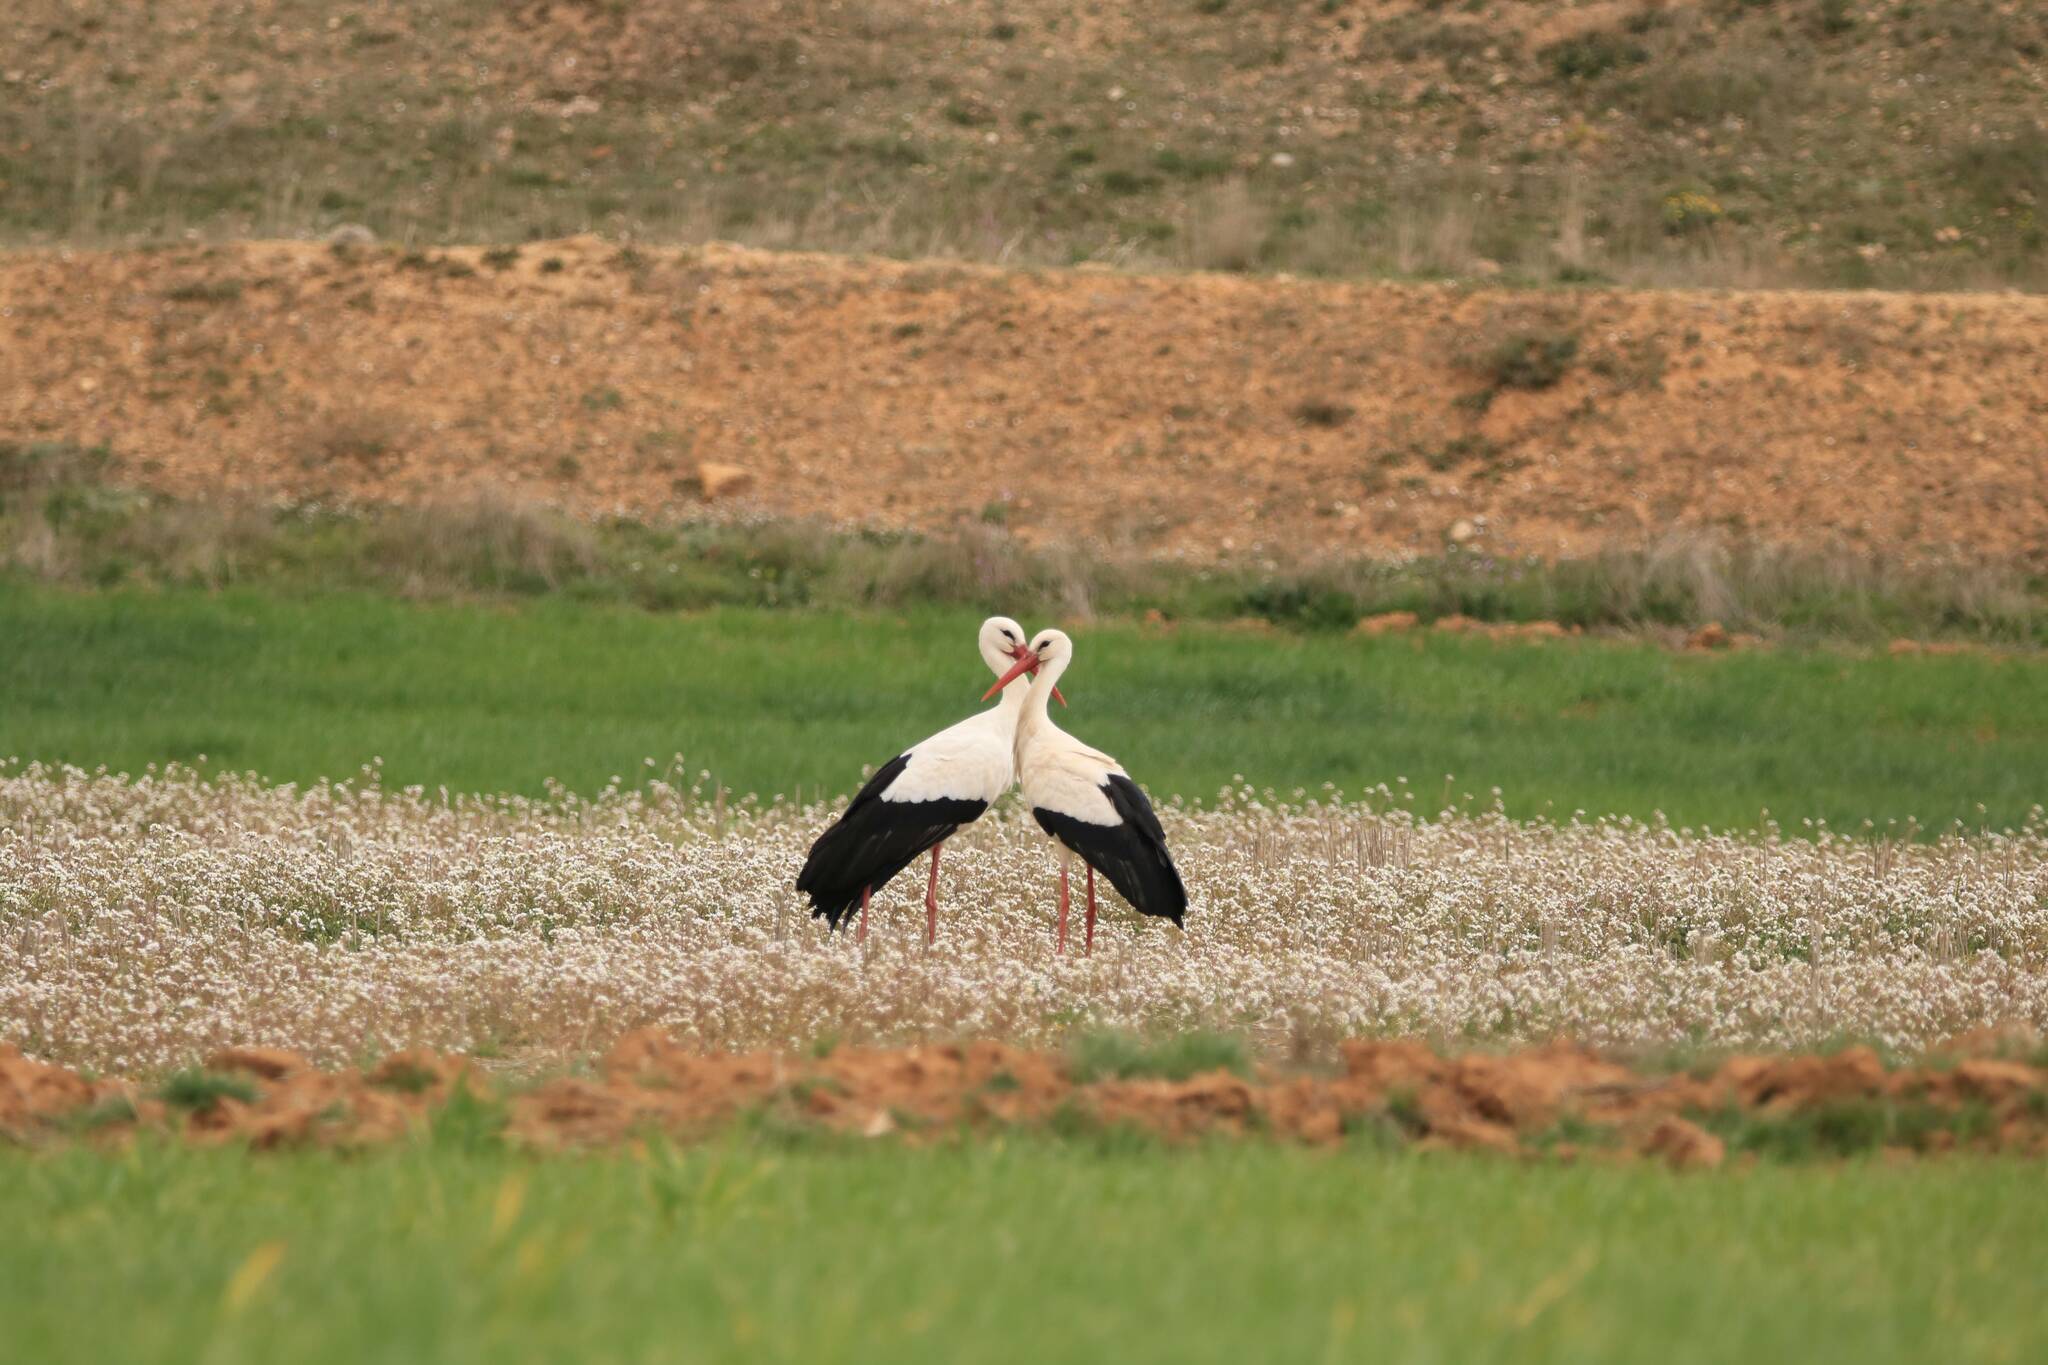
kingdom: Animalia
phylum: Chordata
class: Aves
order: Ciconiiformes
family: Ciconiidae
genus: Ciconia
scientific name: Ciconia ciconia
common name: White stork
